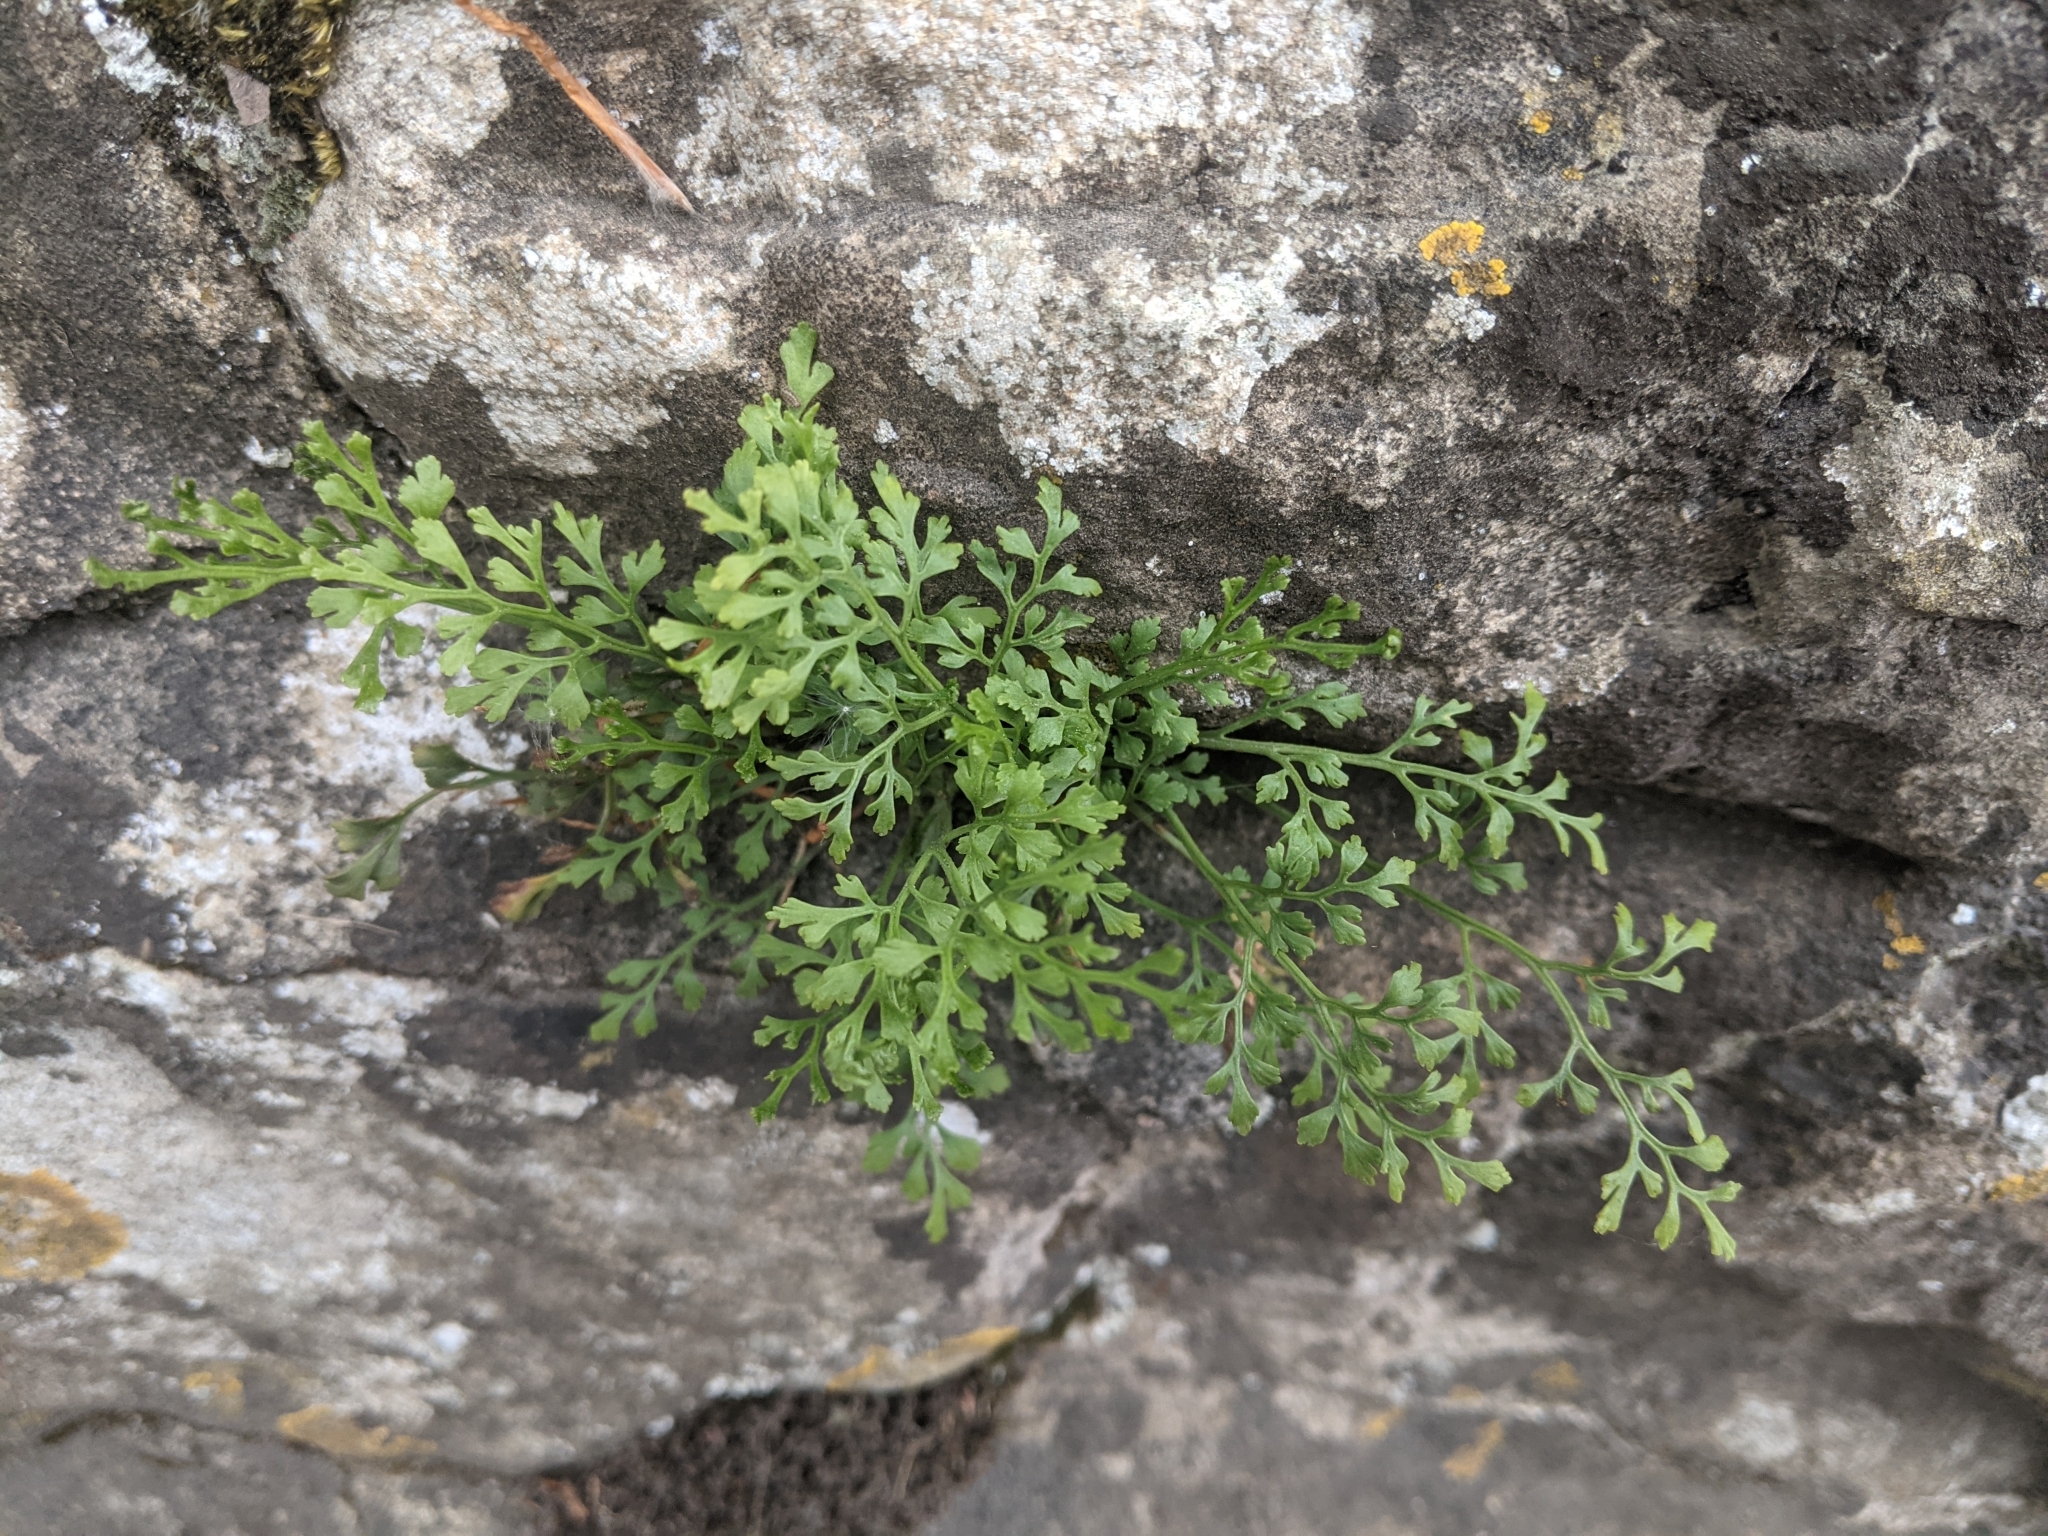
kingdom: Plantae
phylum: Tracheophyta
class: Polypodiopsida
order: Polypodiales
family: Aspleniaceae
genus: Asplenium
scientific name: Asplenium ruta-muraria
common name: Wall-rue
